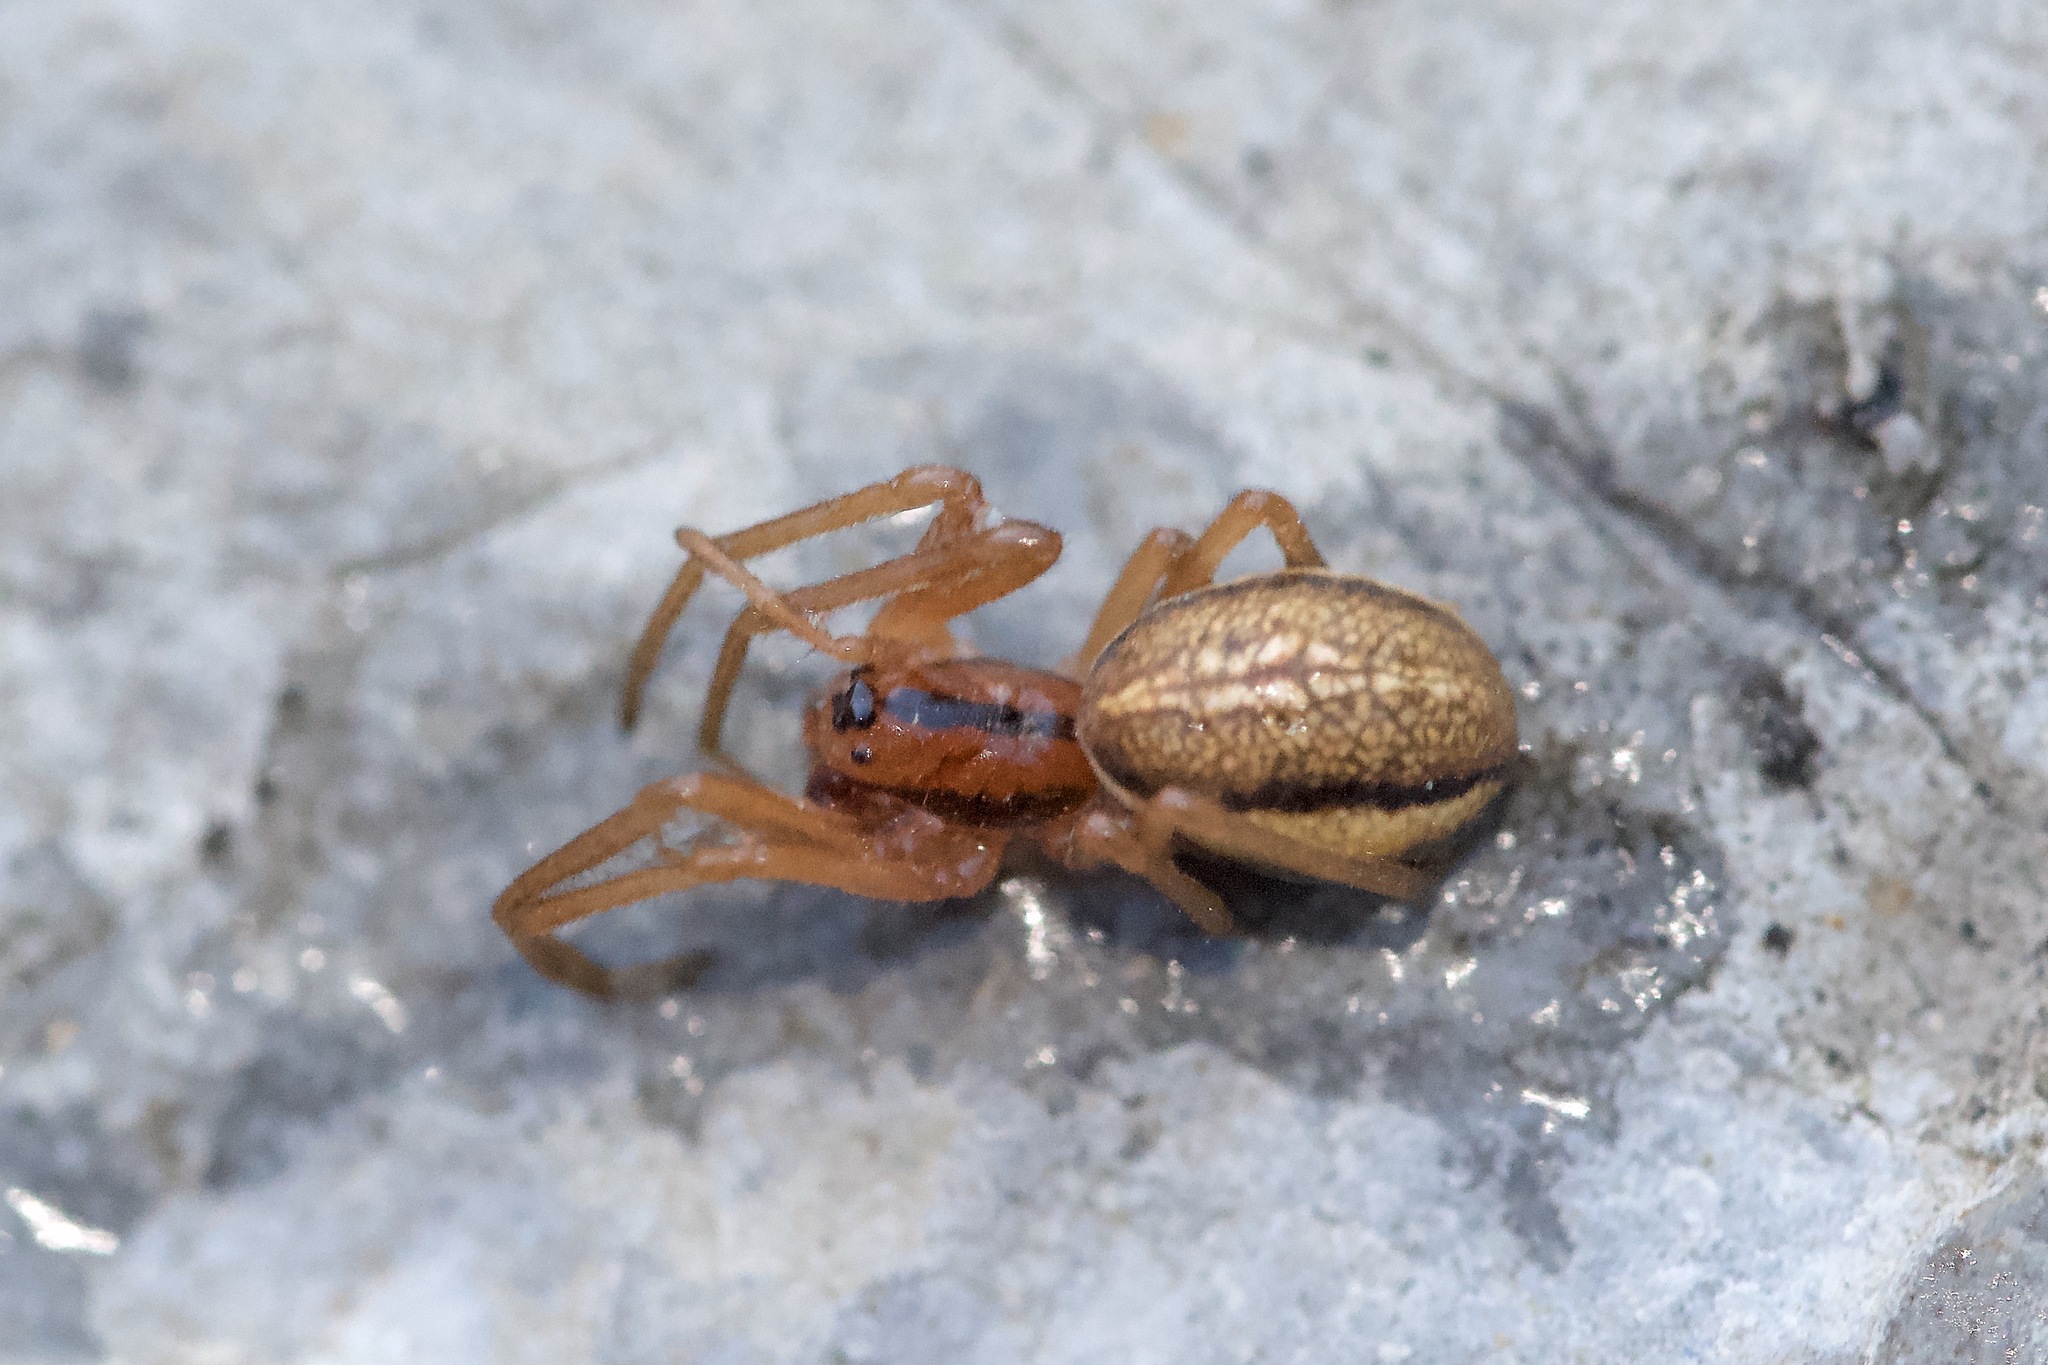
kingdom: Animalia
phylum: Arthropoda
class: Arachnida
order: Araneae
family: Tetragnathidae
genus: Pachygnatha
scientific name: Pachygnatha tristriata
